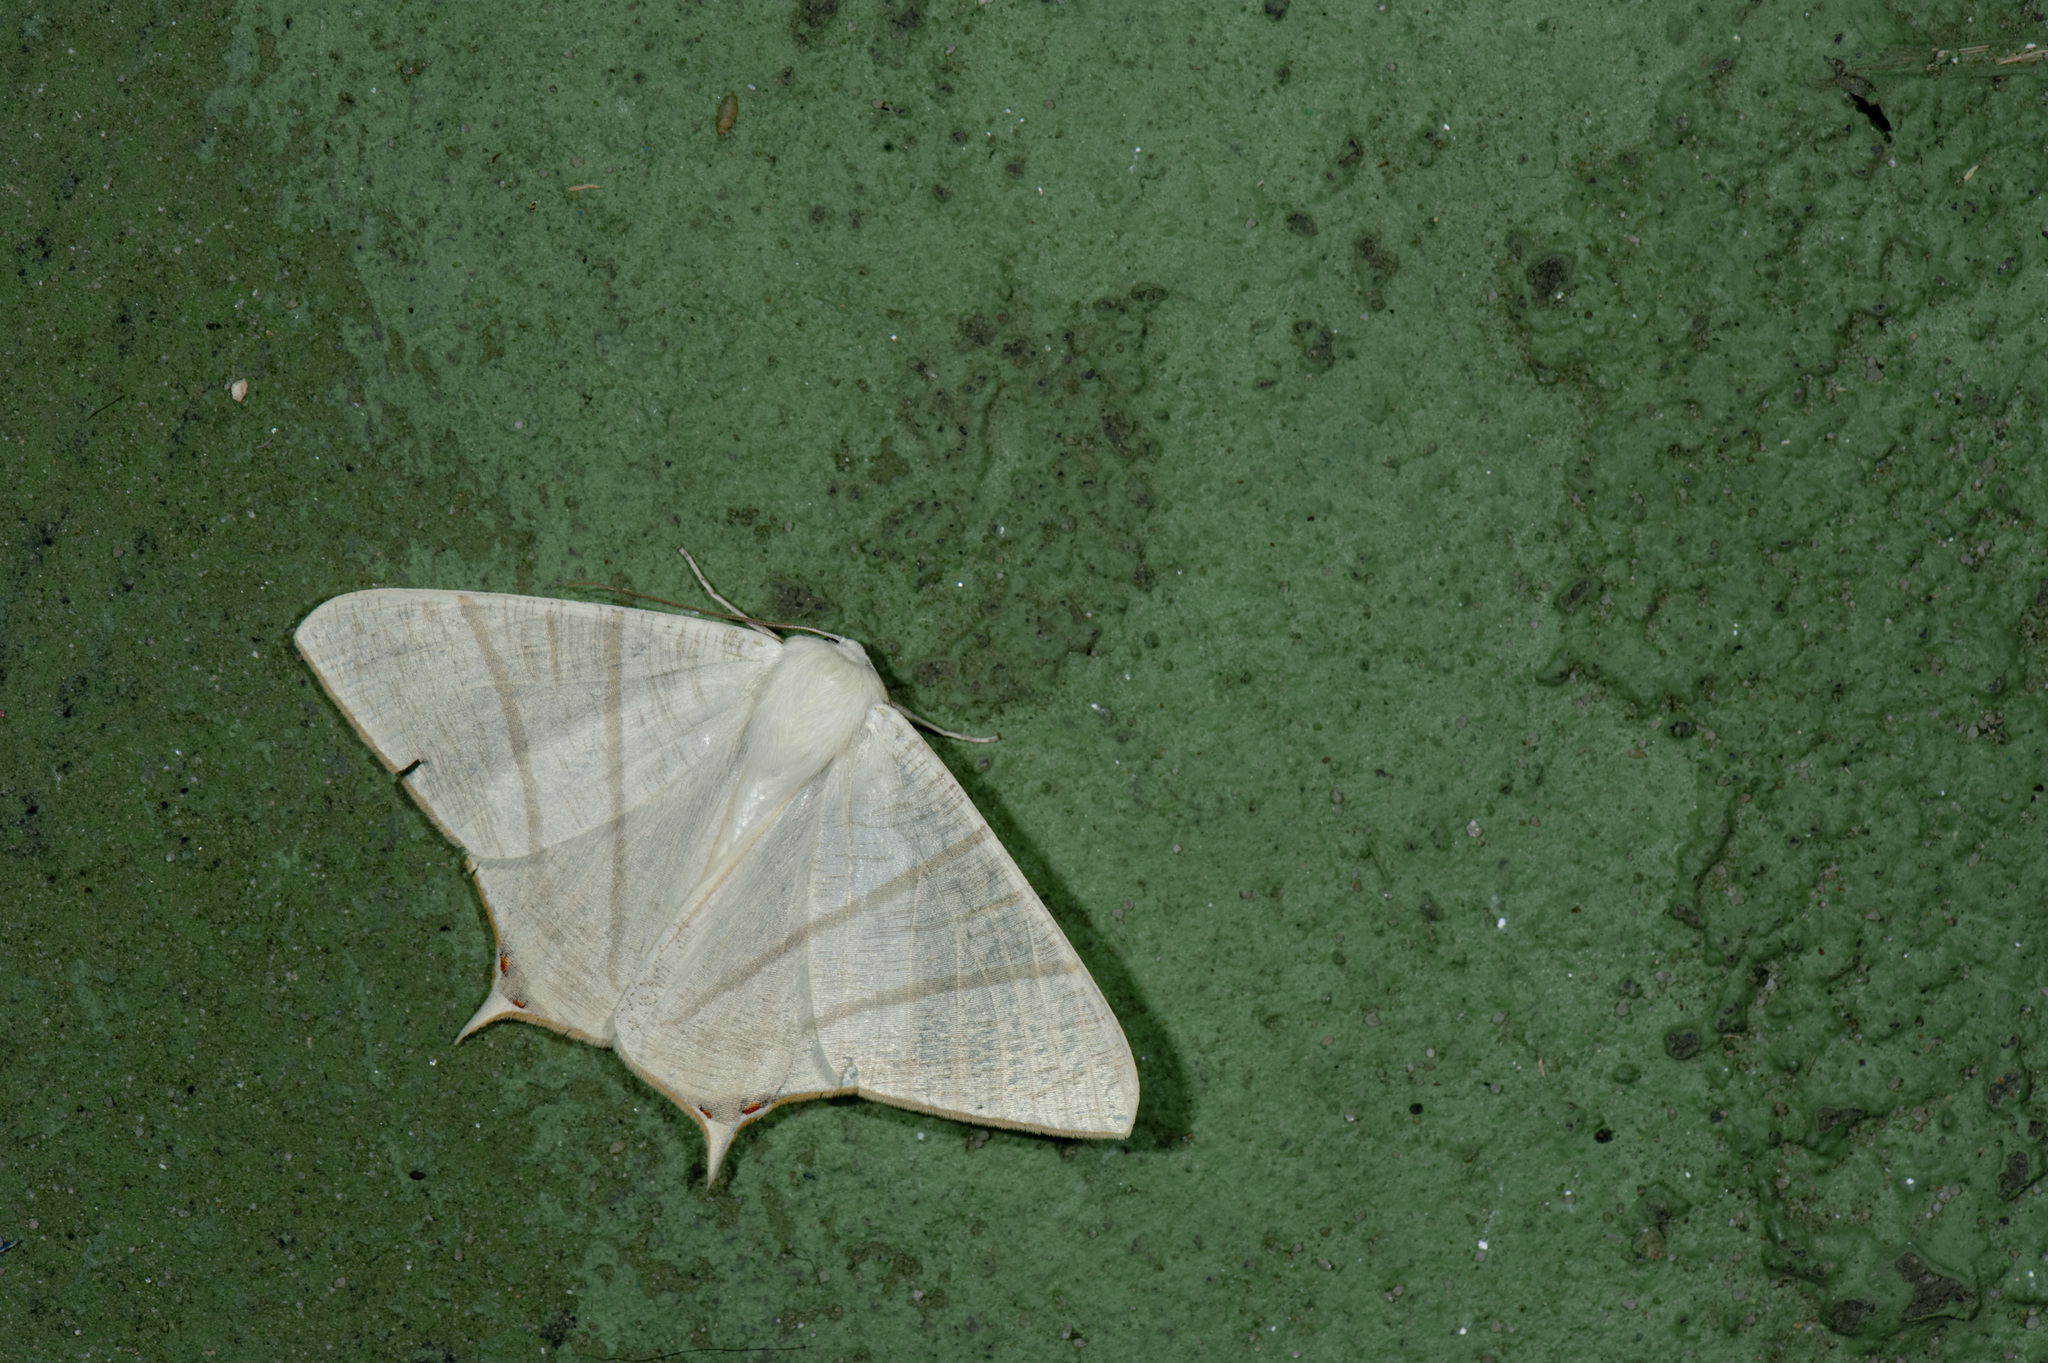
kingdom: Animalia
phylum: Arthropoda
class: Insecta
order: Lepidoptera
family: Geometridae
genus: Ourapteryx
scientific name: Ourapteryx pallidula
